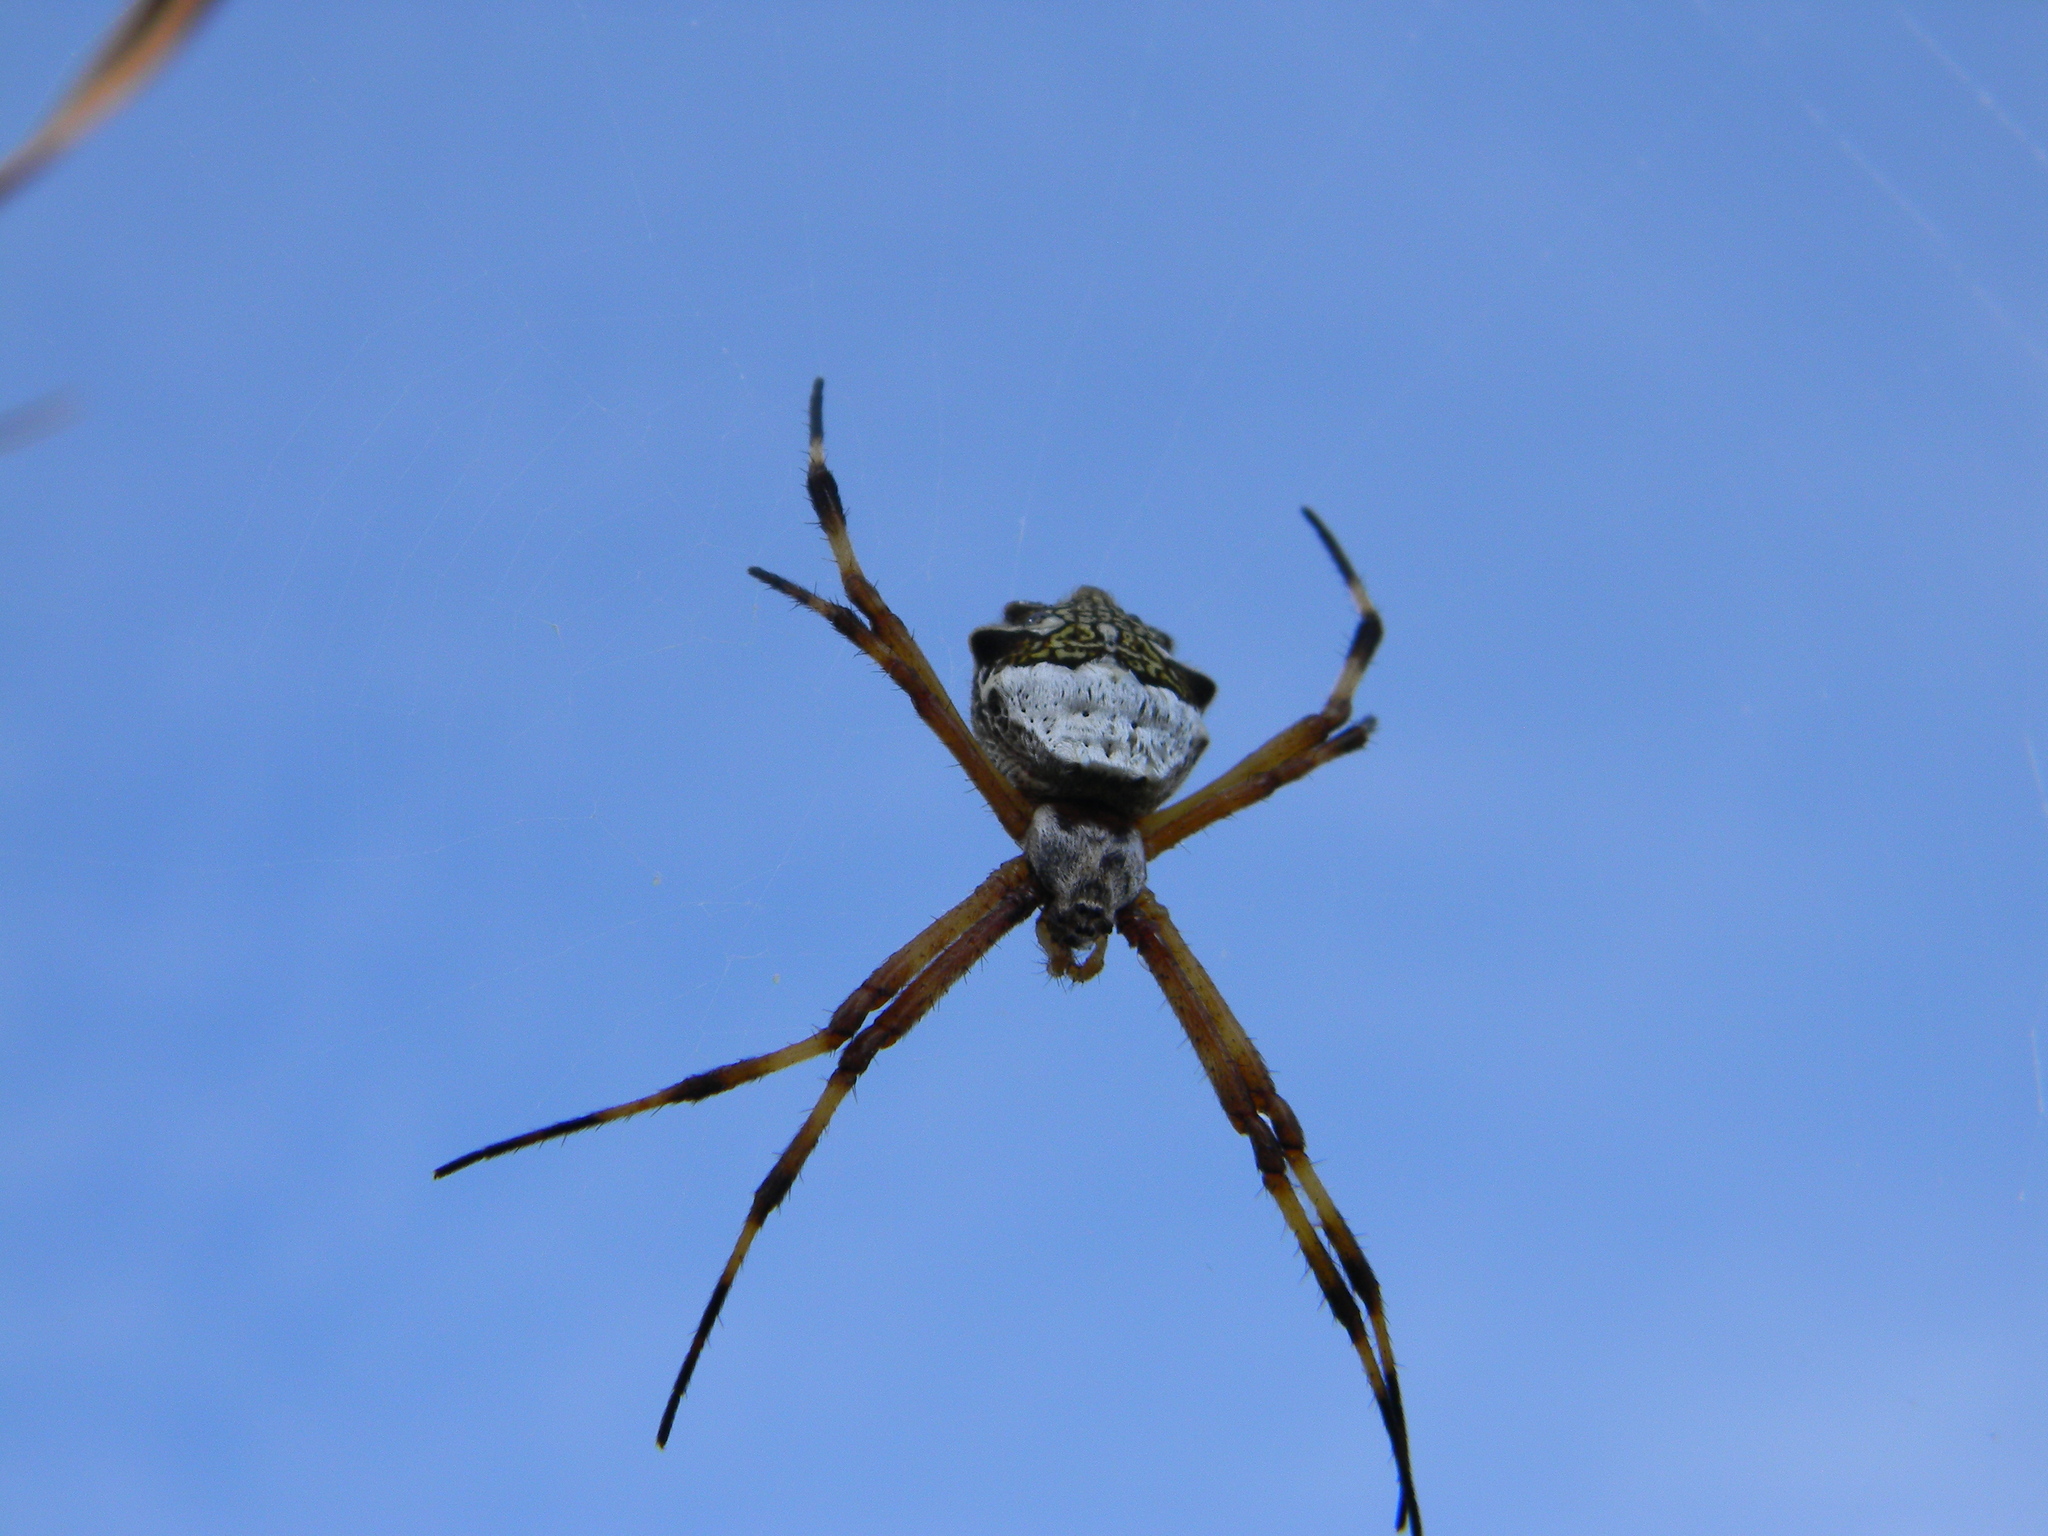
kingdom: Animalia
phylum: Arthropoda
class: Arachnida
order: Araneae
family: Araneidae
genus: Argiope
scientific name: Argiope argentata
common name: Orb weavers
